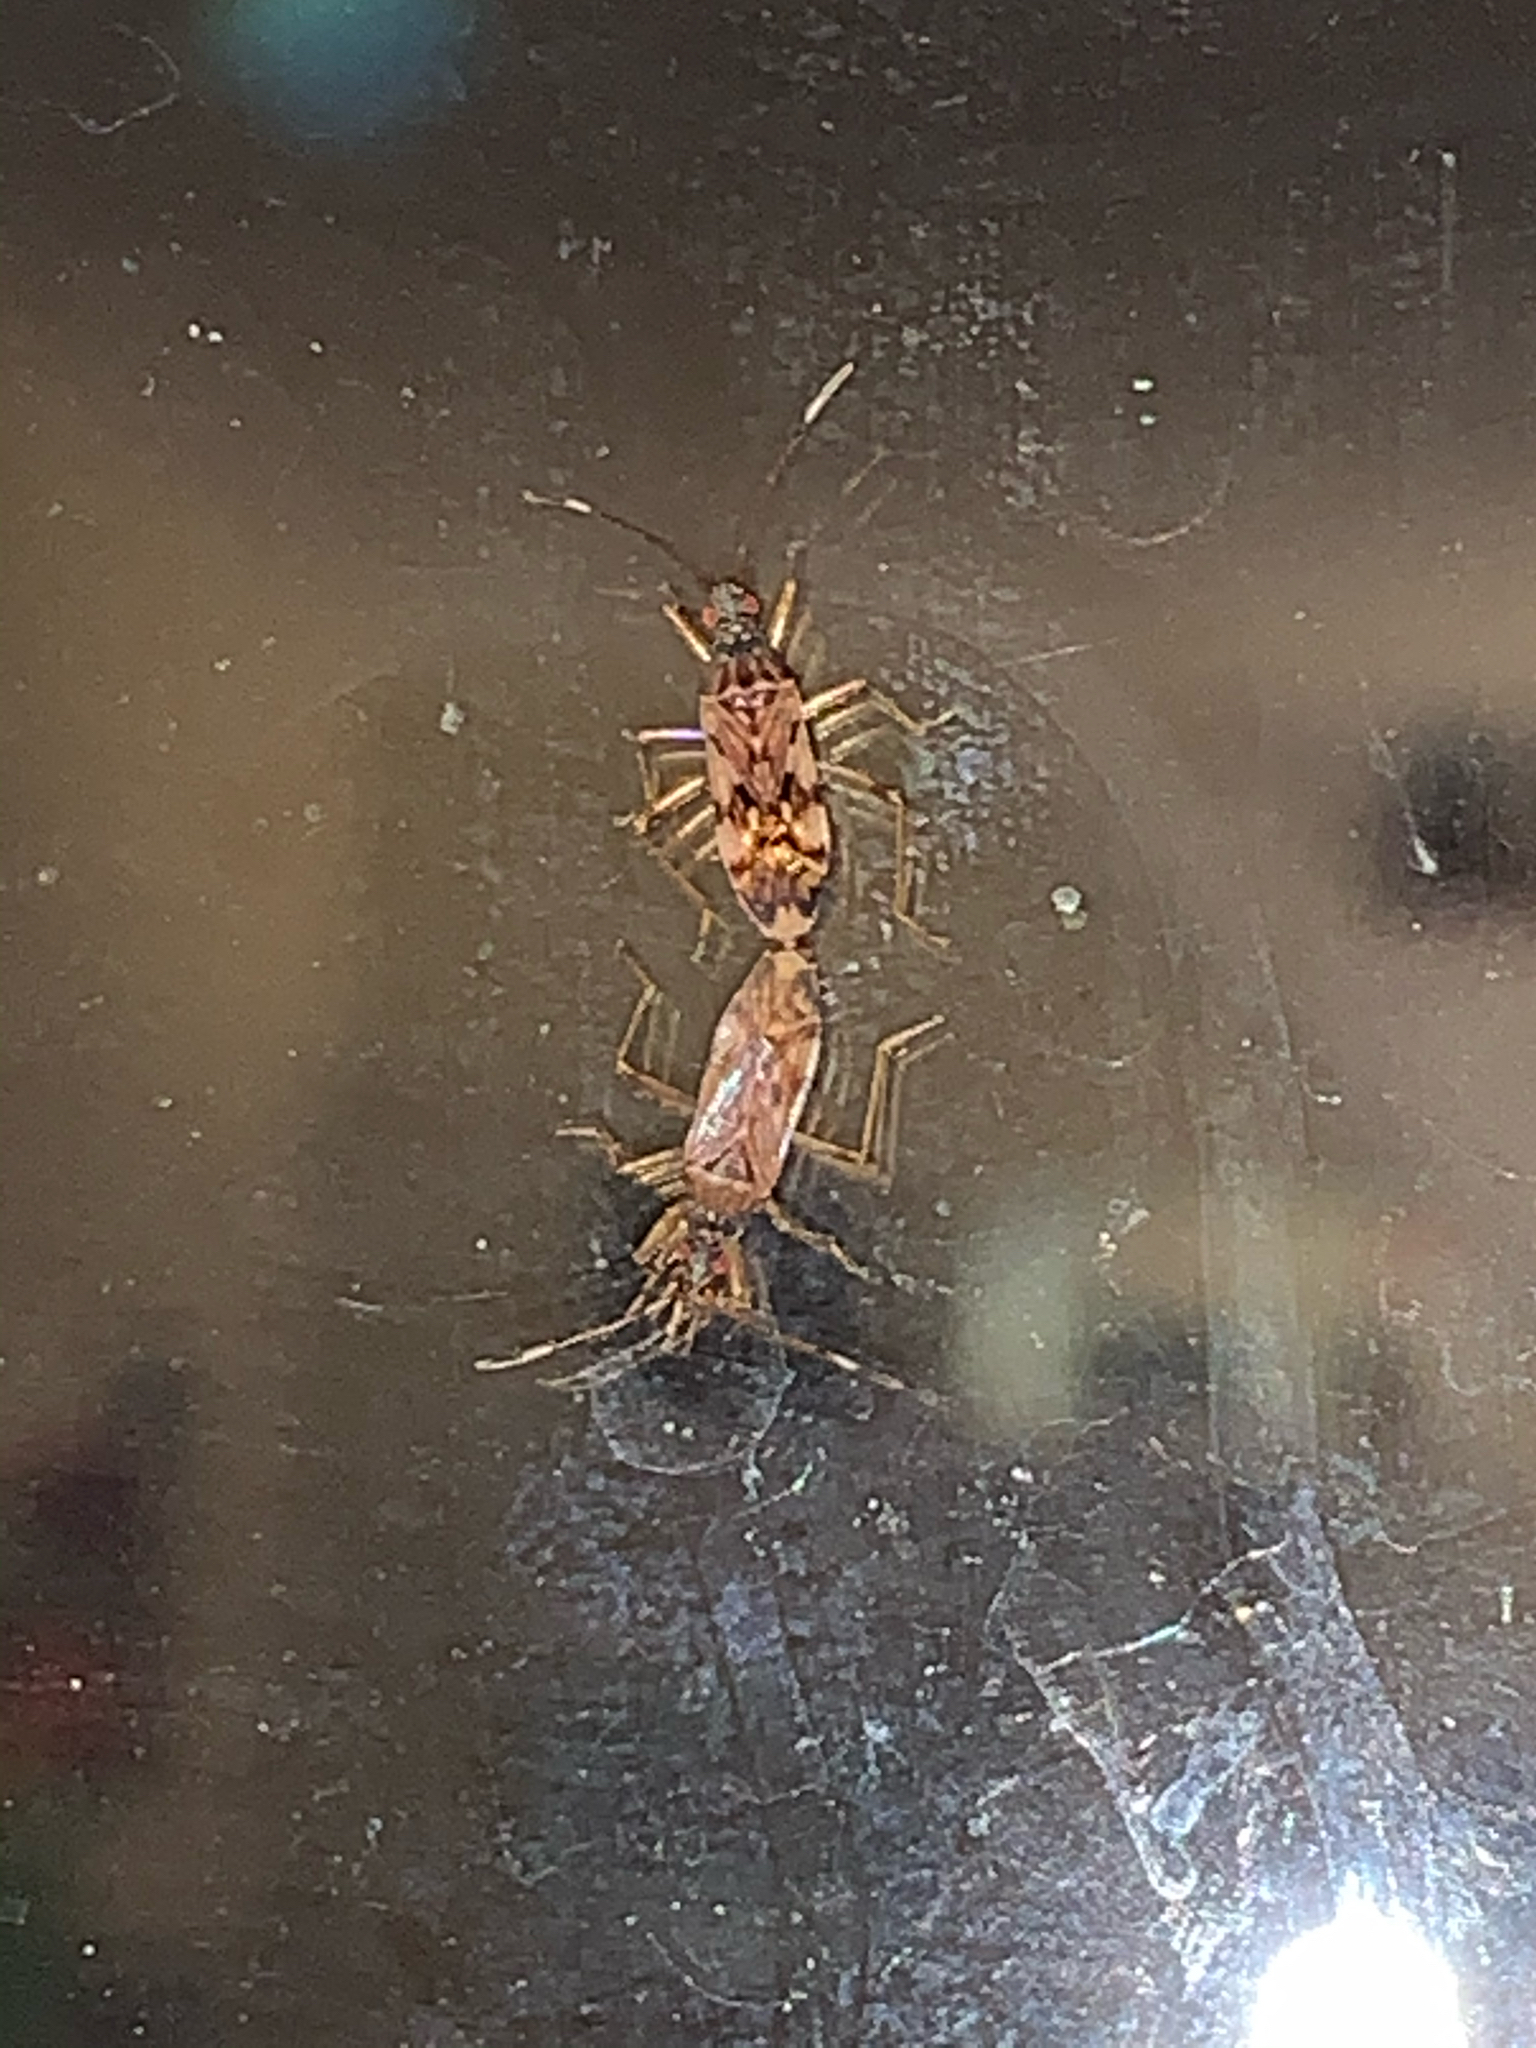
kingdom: Animalia
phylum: Arthropoda
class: Insecta
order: Hemiptera
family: Rhyparochromidae
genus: Ozophora
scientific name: Ozophora picturata
